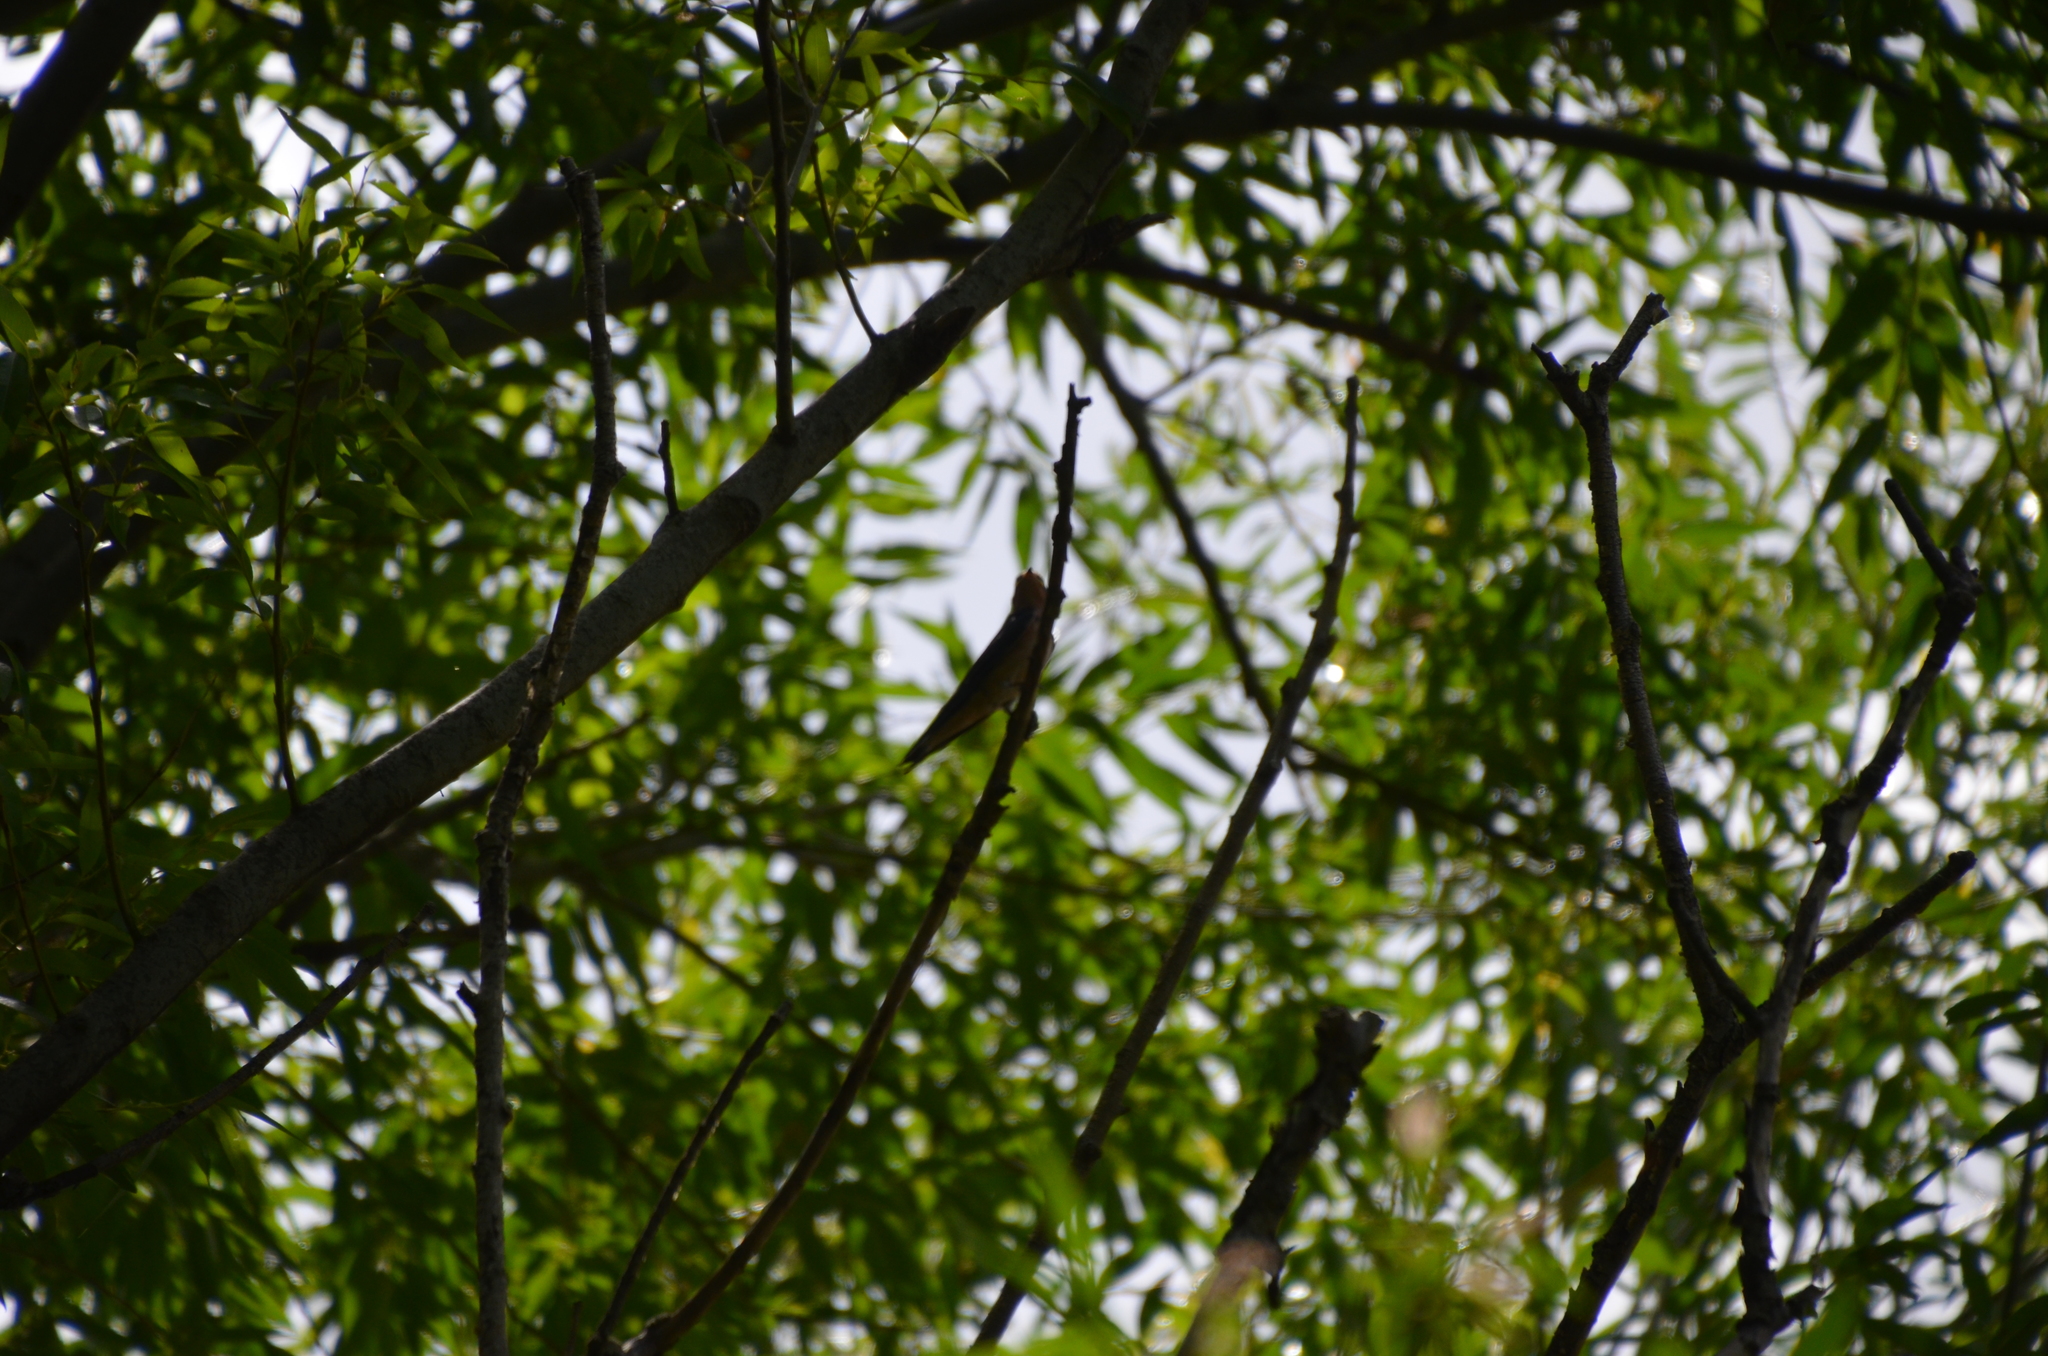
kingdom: Animalia
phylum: Chordata
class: Aves
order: Passeriformes
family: Hirundinidae
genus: Hirundo
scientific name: Hirundo rustica
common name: Barn swallow
